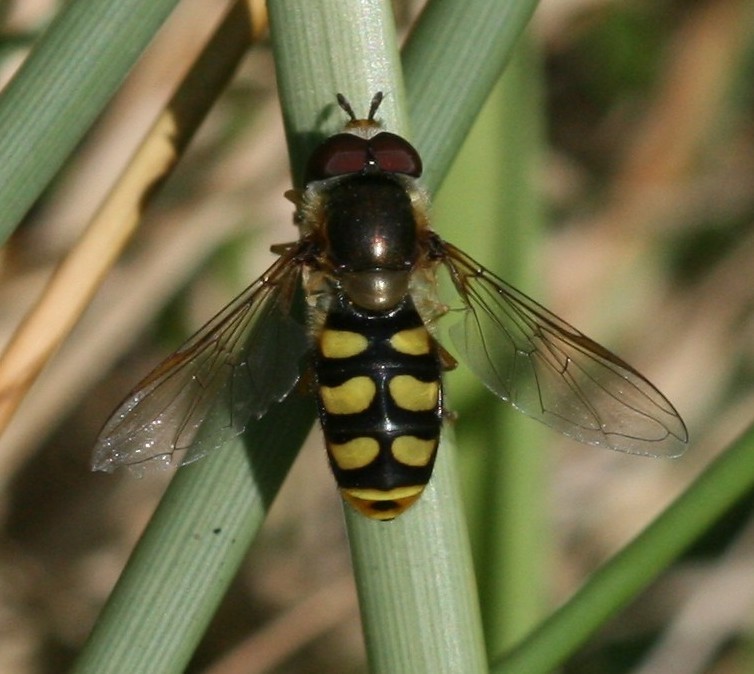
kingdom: Animalia
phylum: Arthropoda
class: Insecta
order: Diptera
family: Syrphidae
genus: Eupeodes
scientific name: Eupeodes
